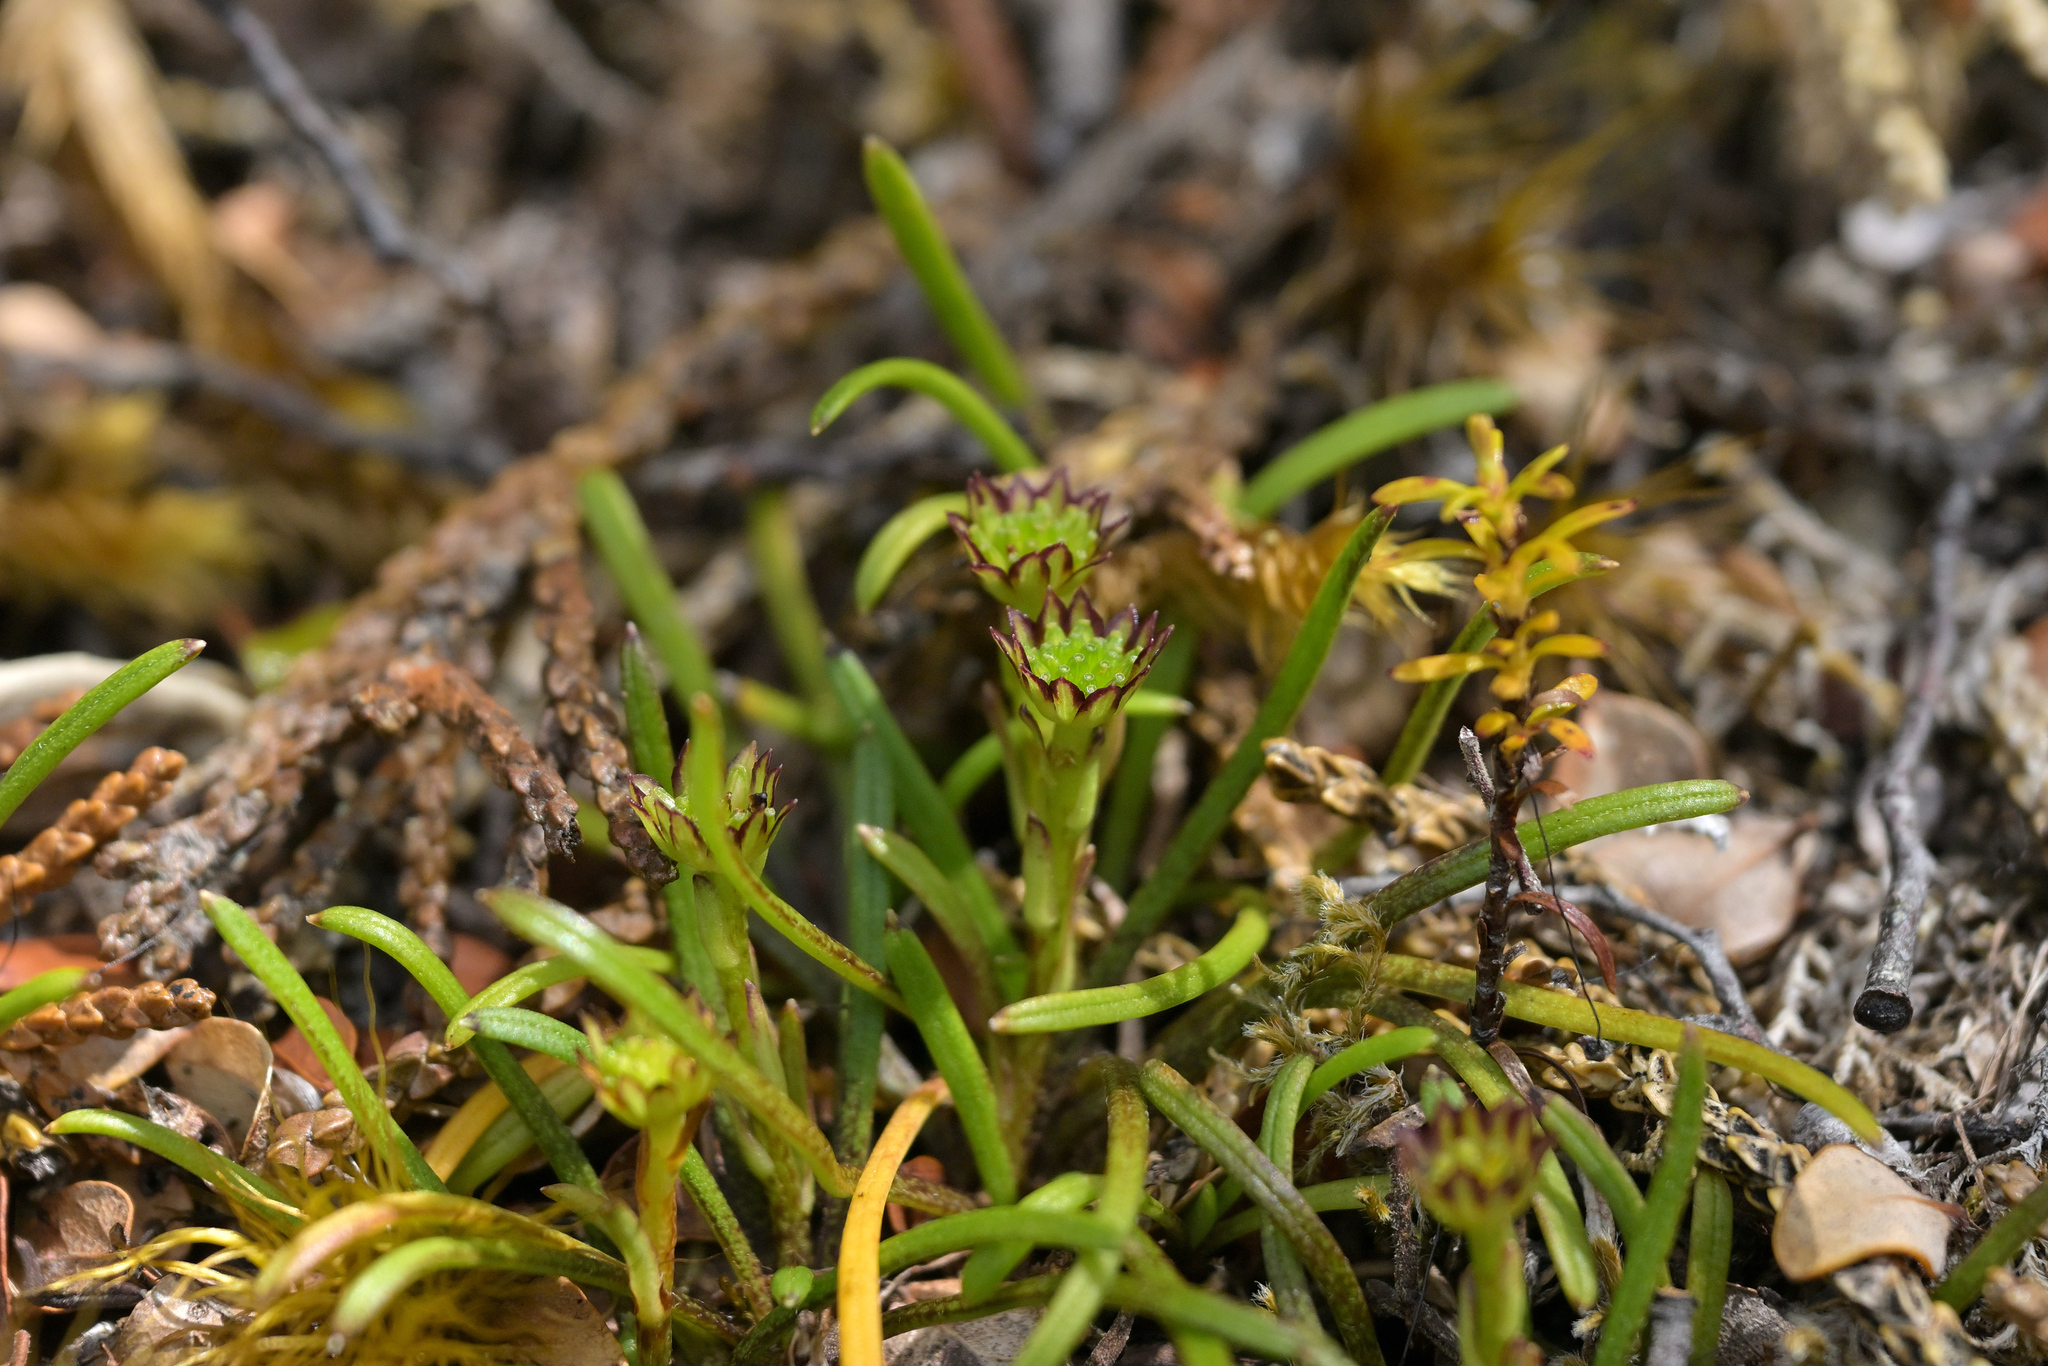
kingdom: Plantae
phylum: Tracheophyta
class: Magnoliopsida
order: Asterales
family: Asteraceae
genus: Abrotanella
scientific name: Abrotanella linearis
